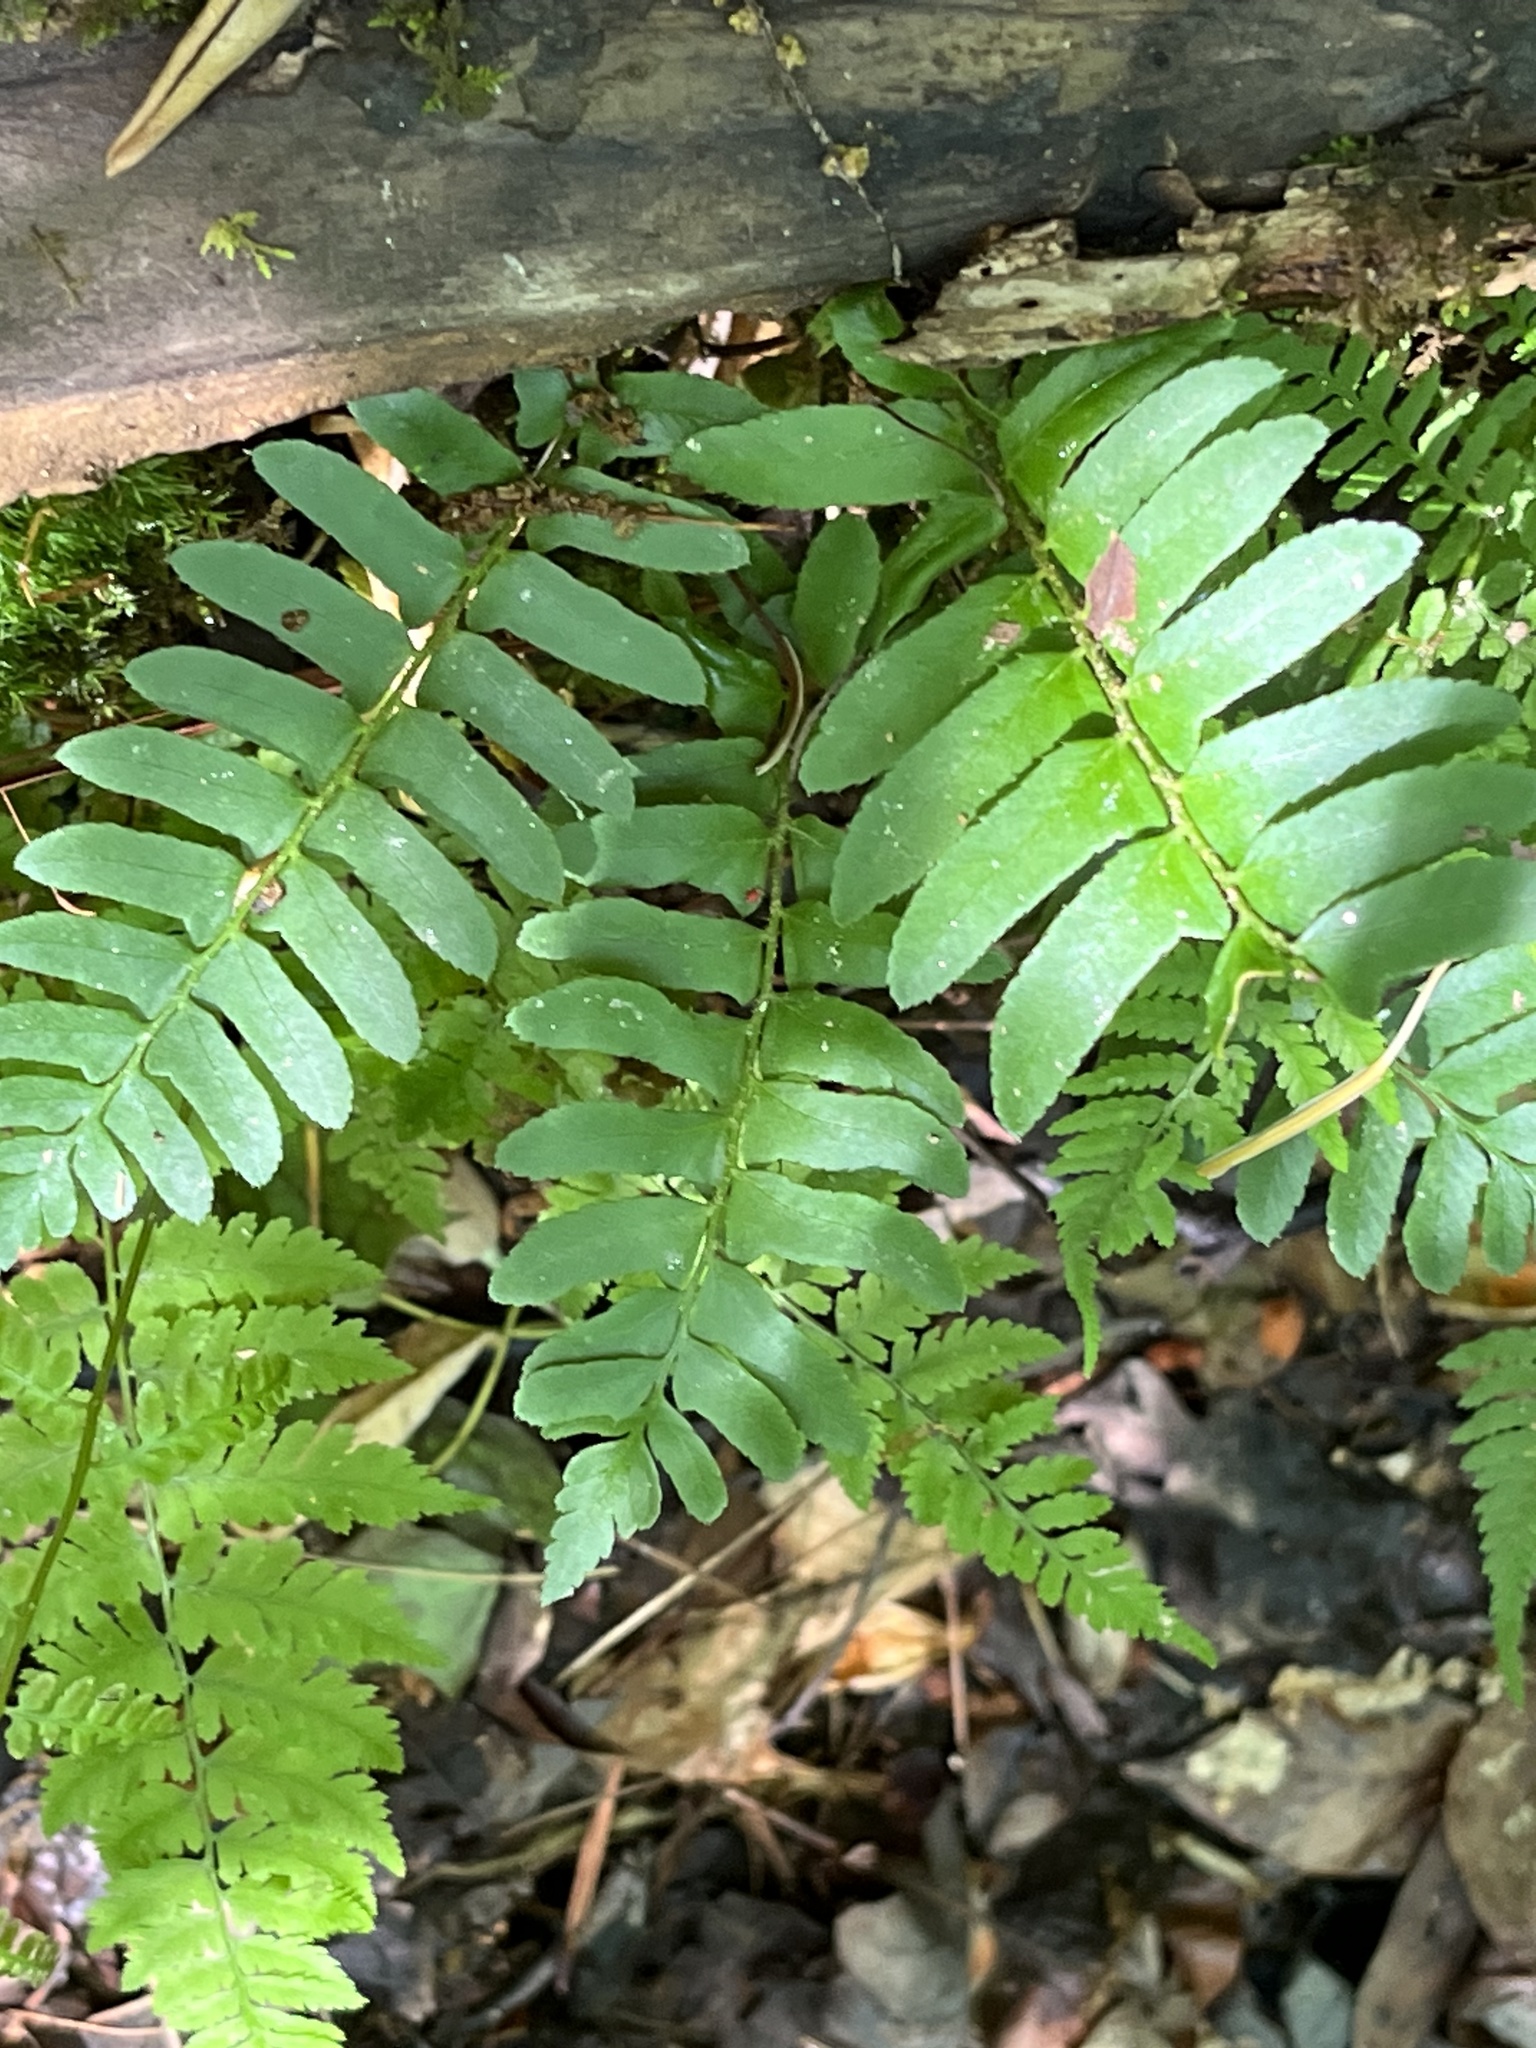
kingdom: Plantae
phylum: Tracheophyta
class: Polypodiopsida
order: Polypodiales
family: Dryopteridaceae
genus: Polystichum
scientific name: Polystichum acrostichoides
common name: Christmas fern
